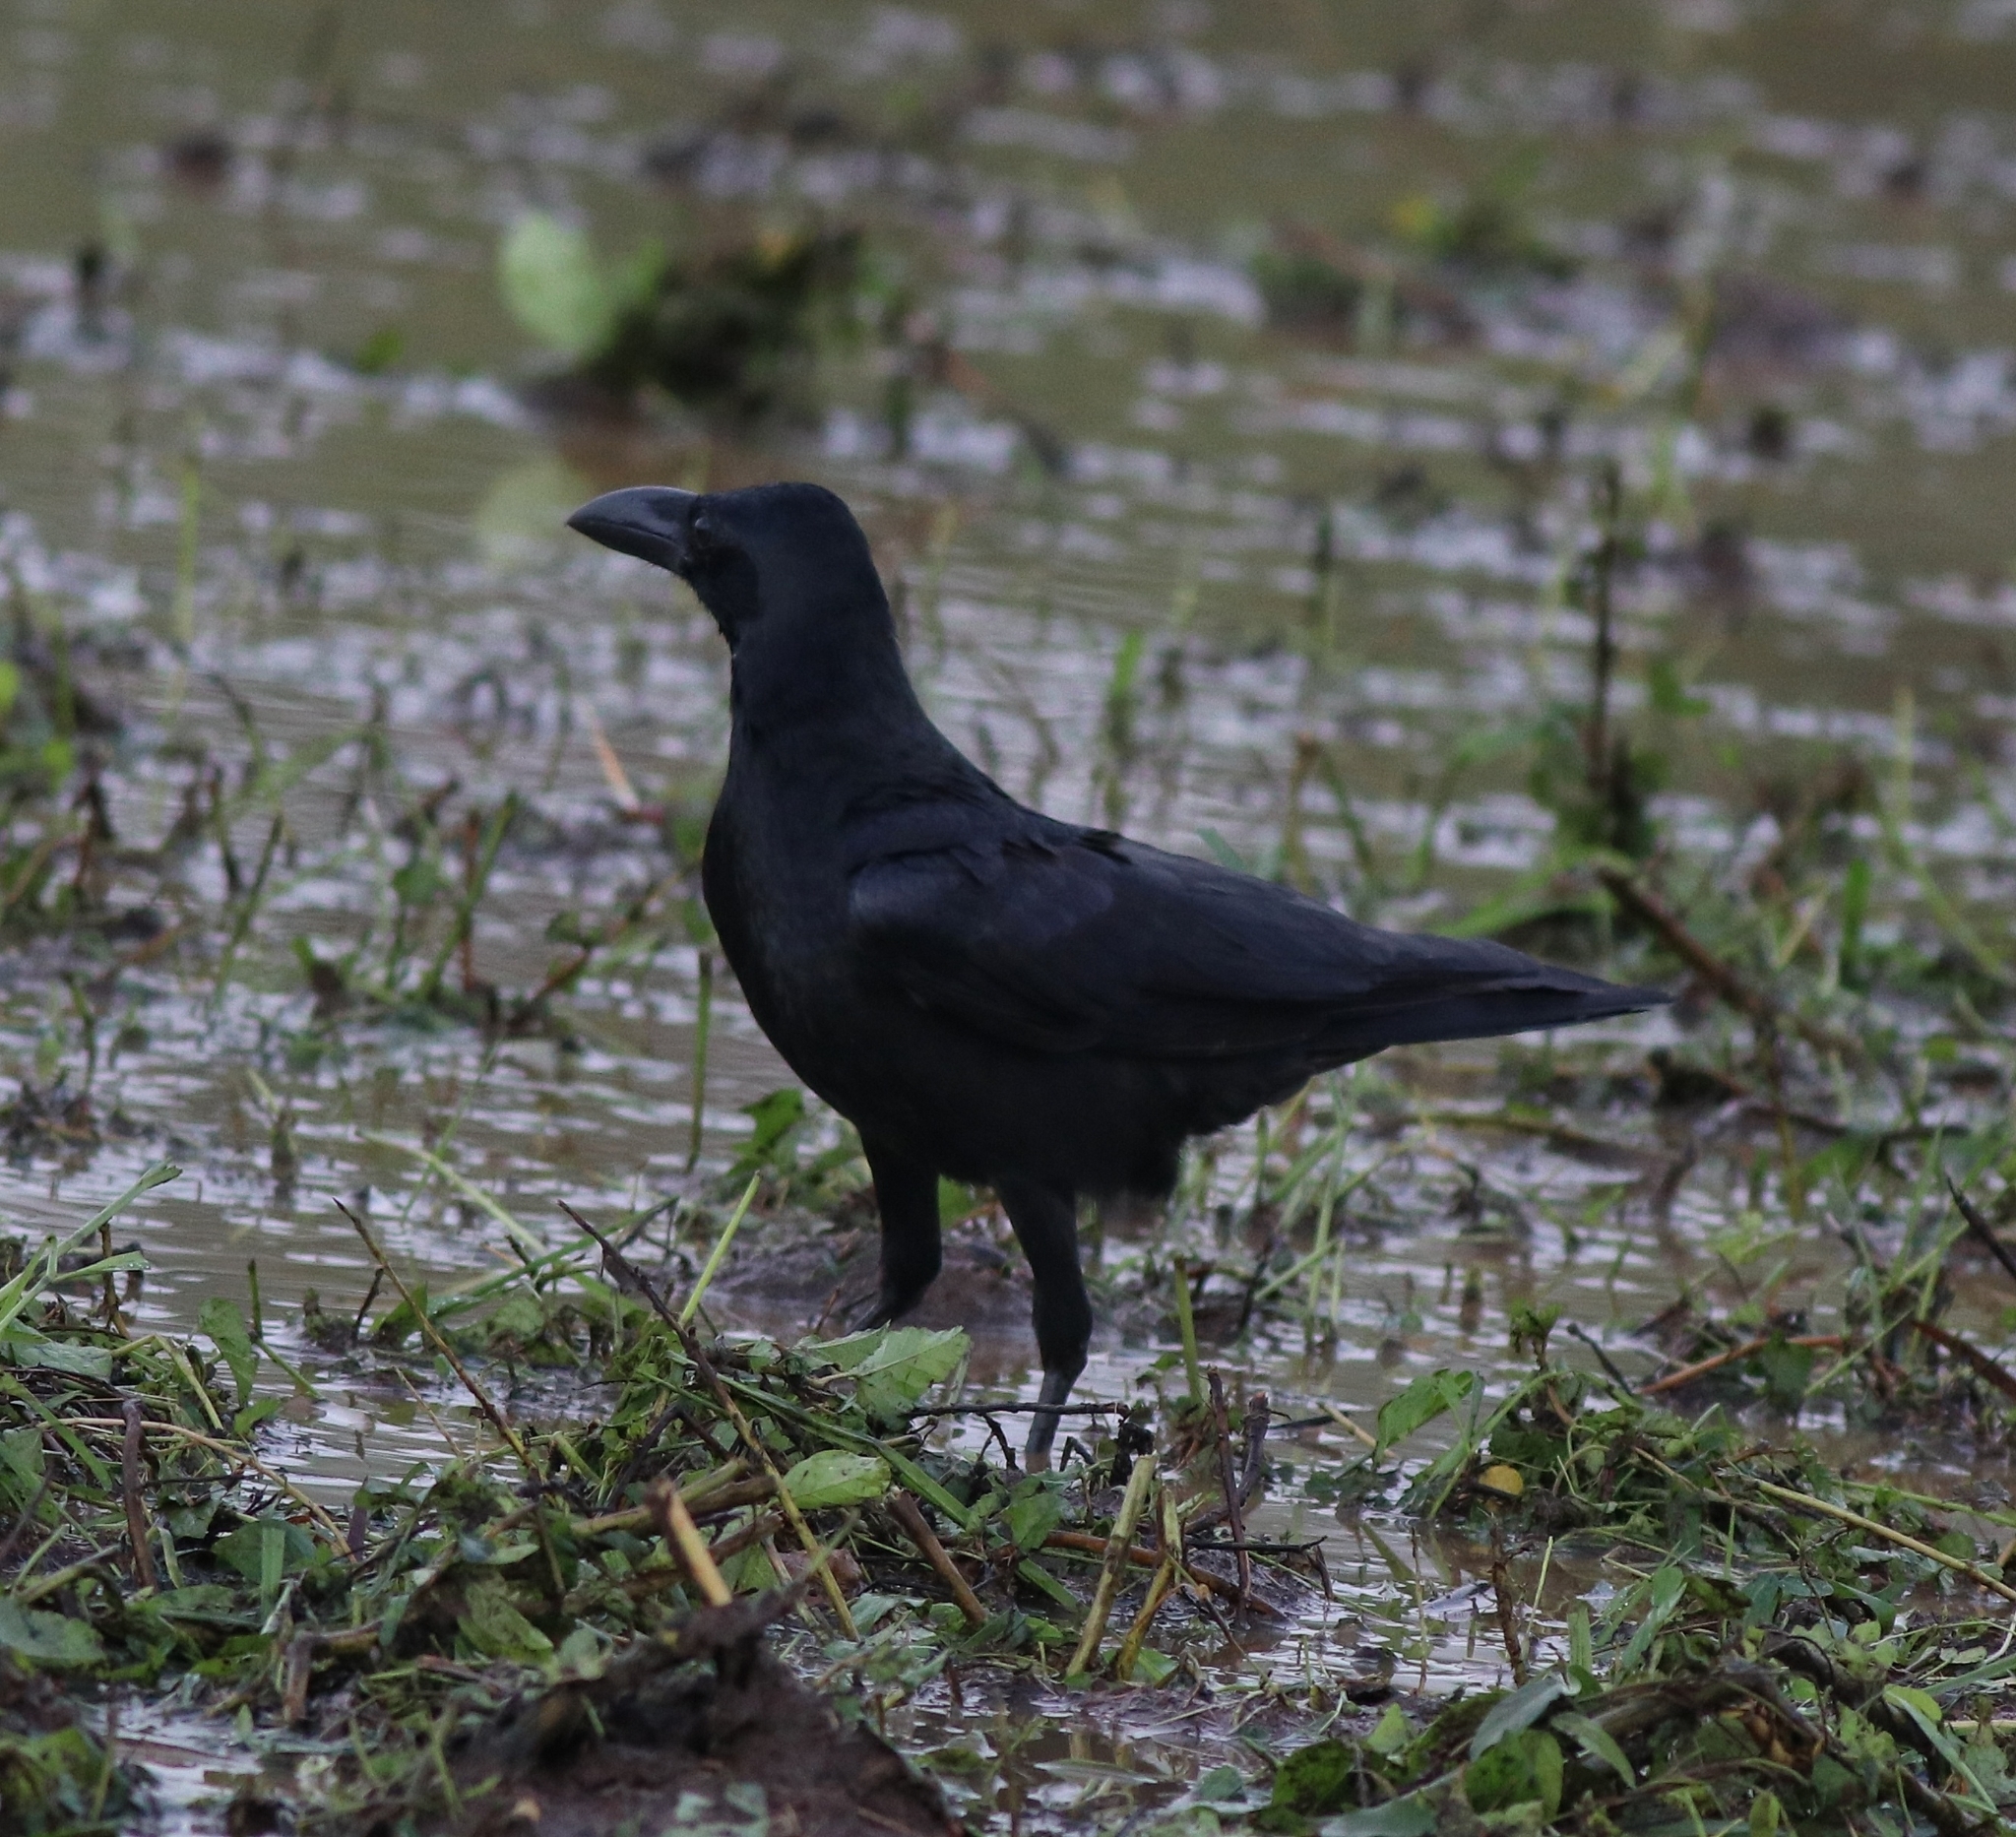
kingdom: Animalia
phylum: Chordata
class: Aves
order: Passeriformes
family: Corvidae
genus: Corvus
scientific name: Corvus macrorhynchos
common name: Large-billed crow
